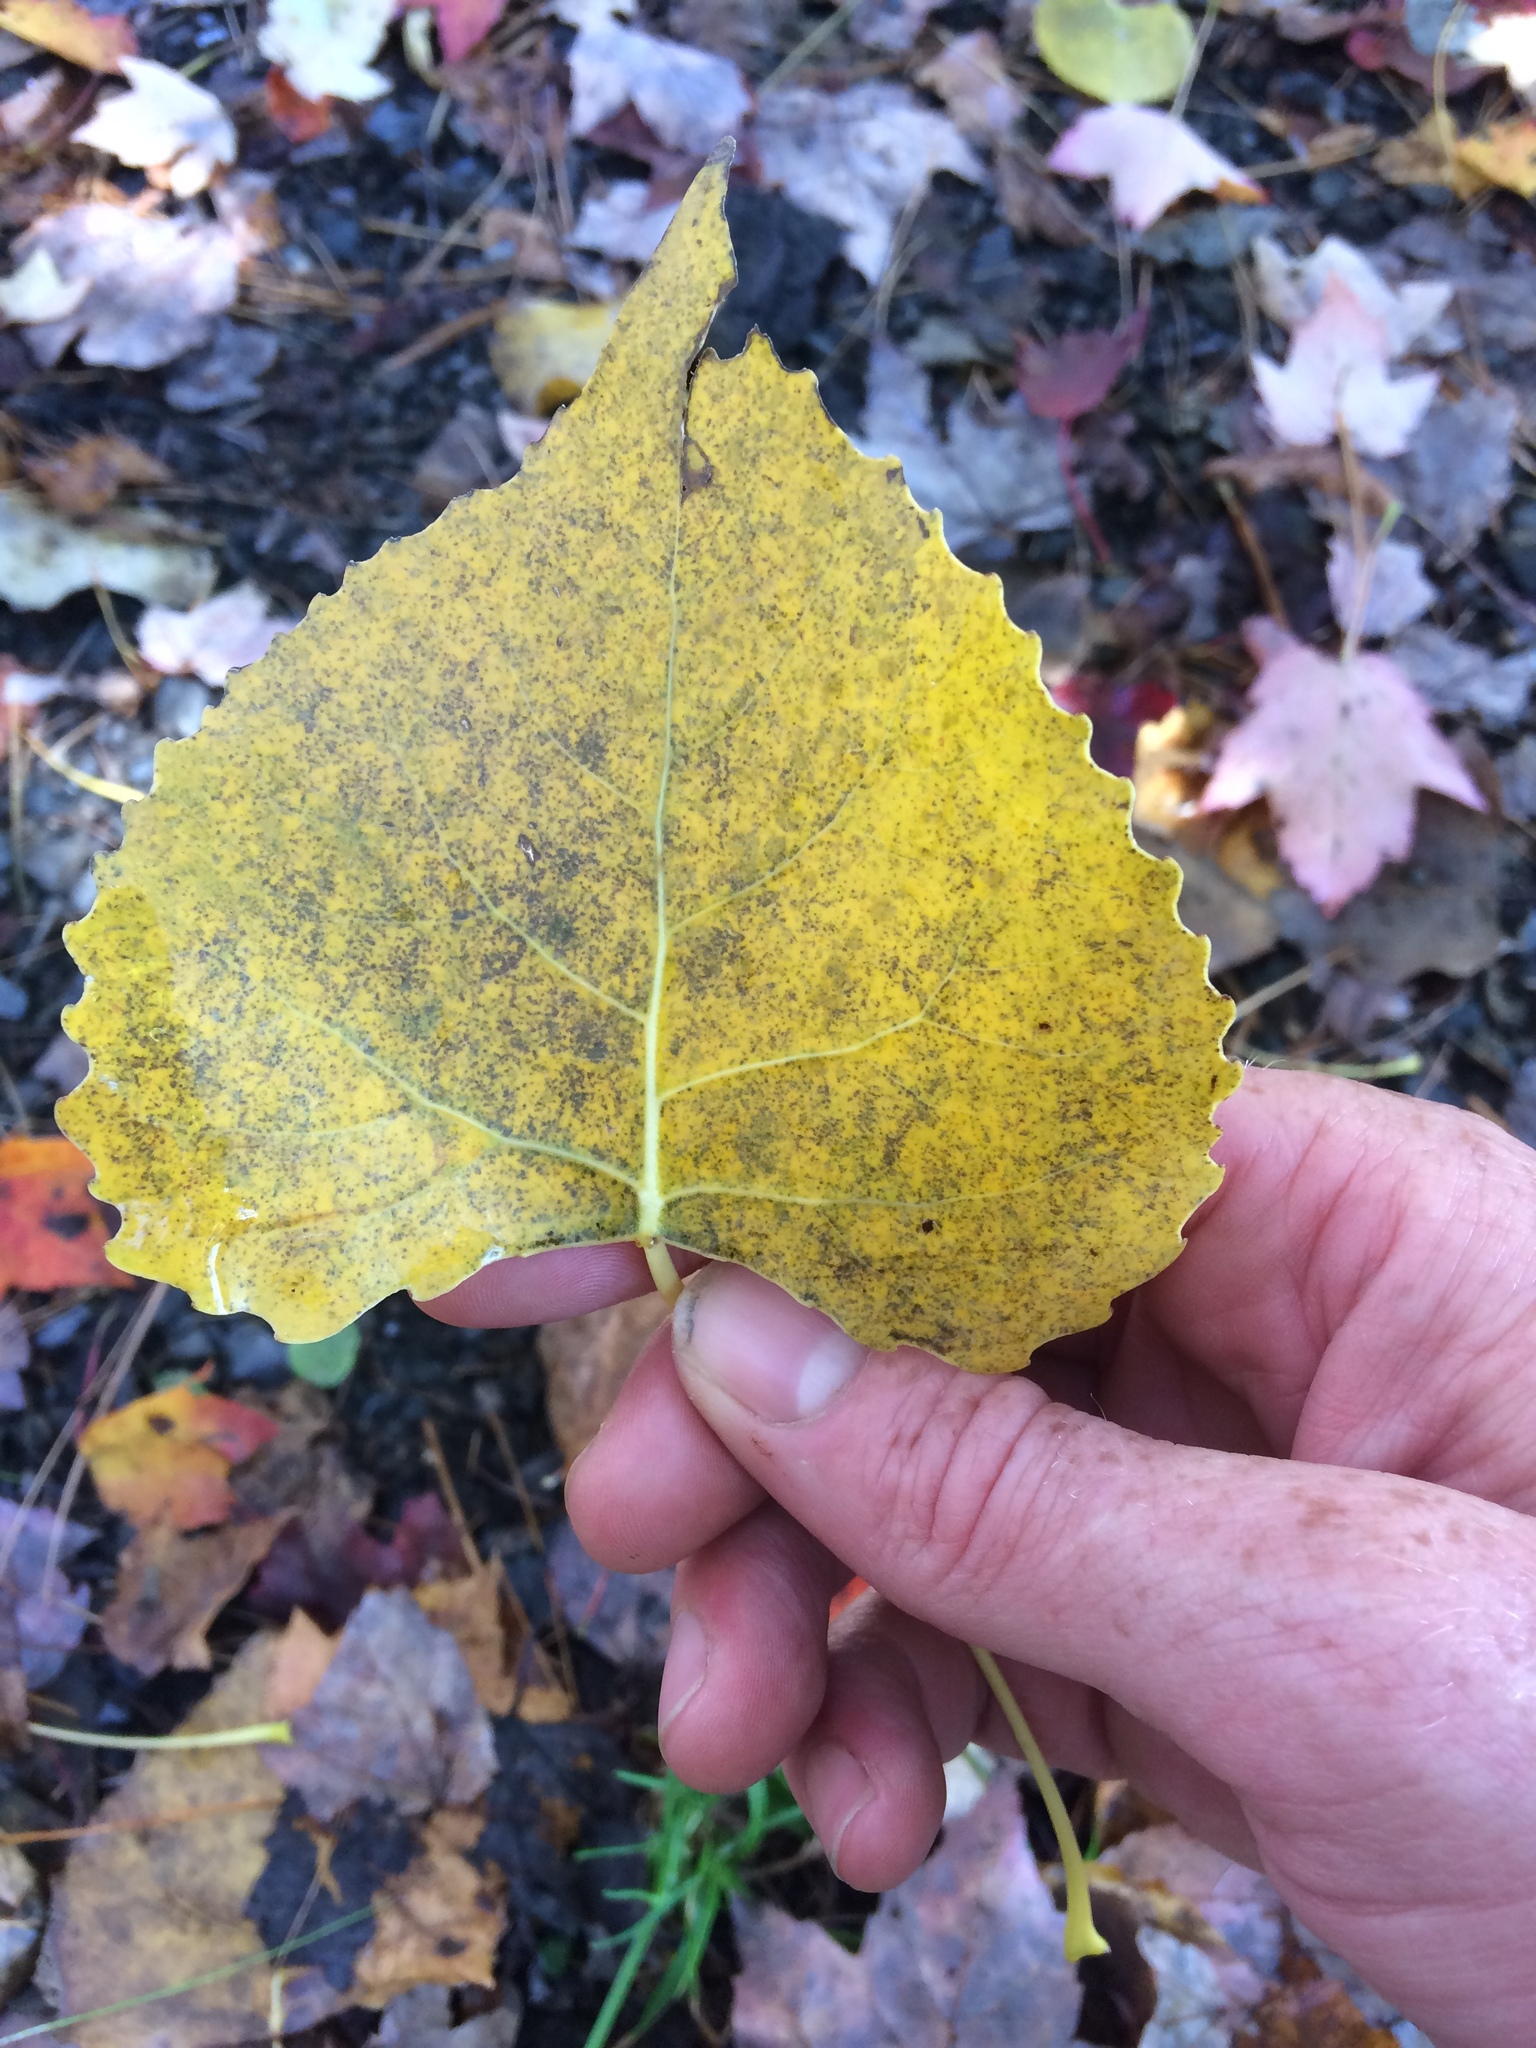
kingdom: Plantae
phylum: Tracheophyta
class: Magnoliopsida
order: Malpighiales
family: Salicaceae
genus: Populus
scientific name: Populus deltoides
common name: Eastern cottonwood
